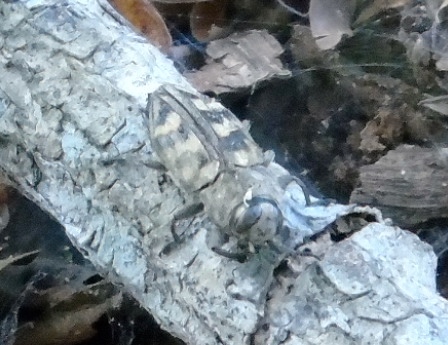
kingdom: Animalia
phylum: Arthropoda
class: Insecta
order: Coleoptera
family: Buprestidae
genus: Chrysobothris
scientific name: Chrysobothris
